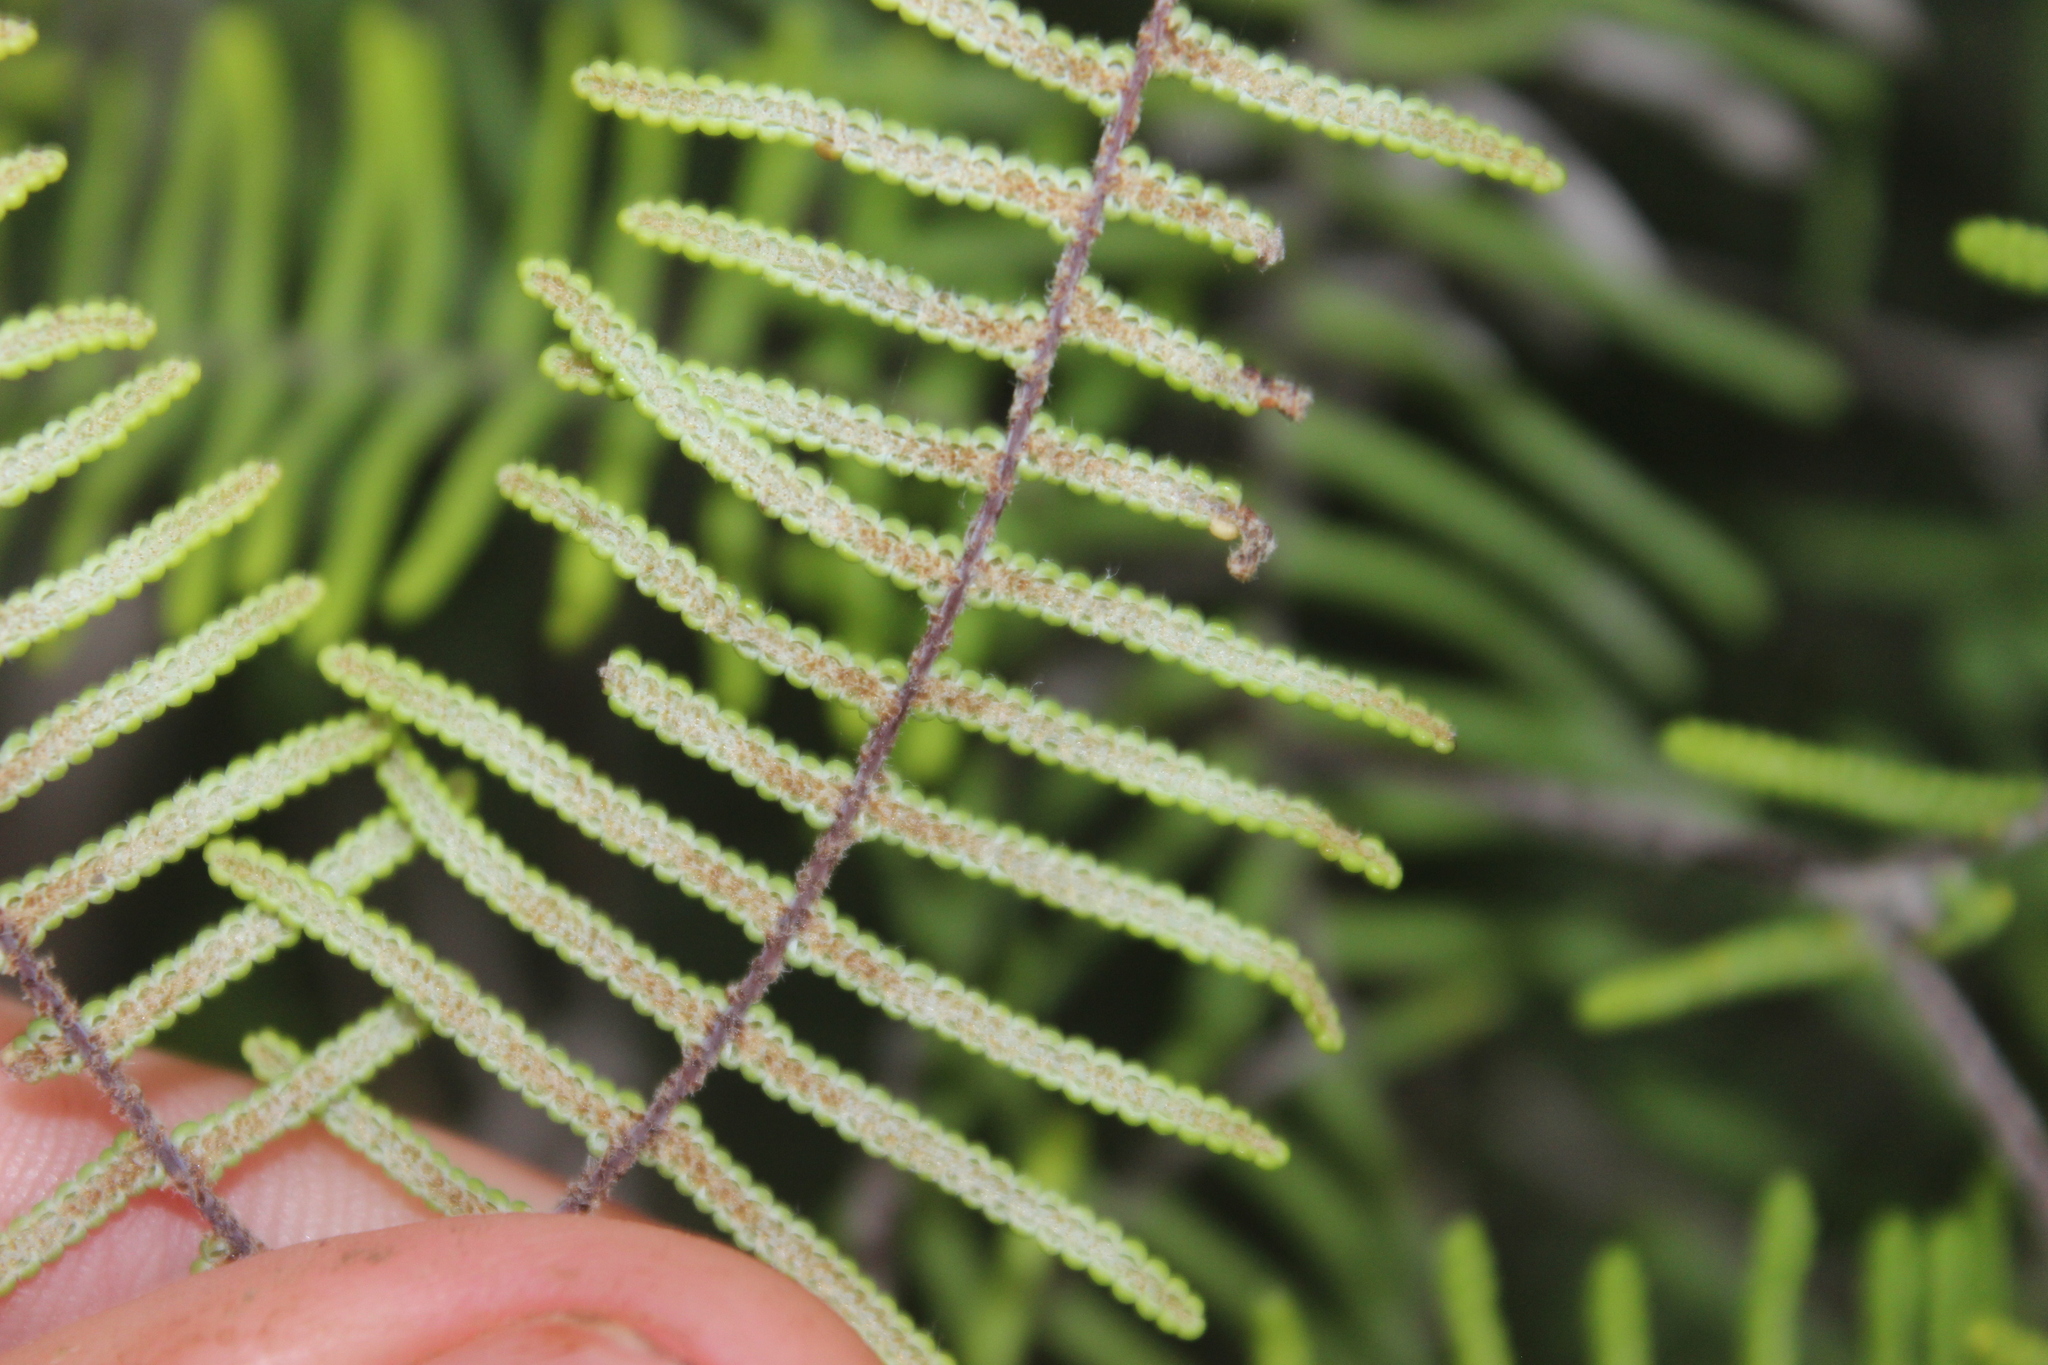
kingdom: Plantae
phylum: Tracheophyta
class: Polypodiopsida
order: Gleicheniales
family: Gleicheniaceae
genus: Gleichenia
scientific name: Gleichenia dicarpa
